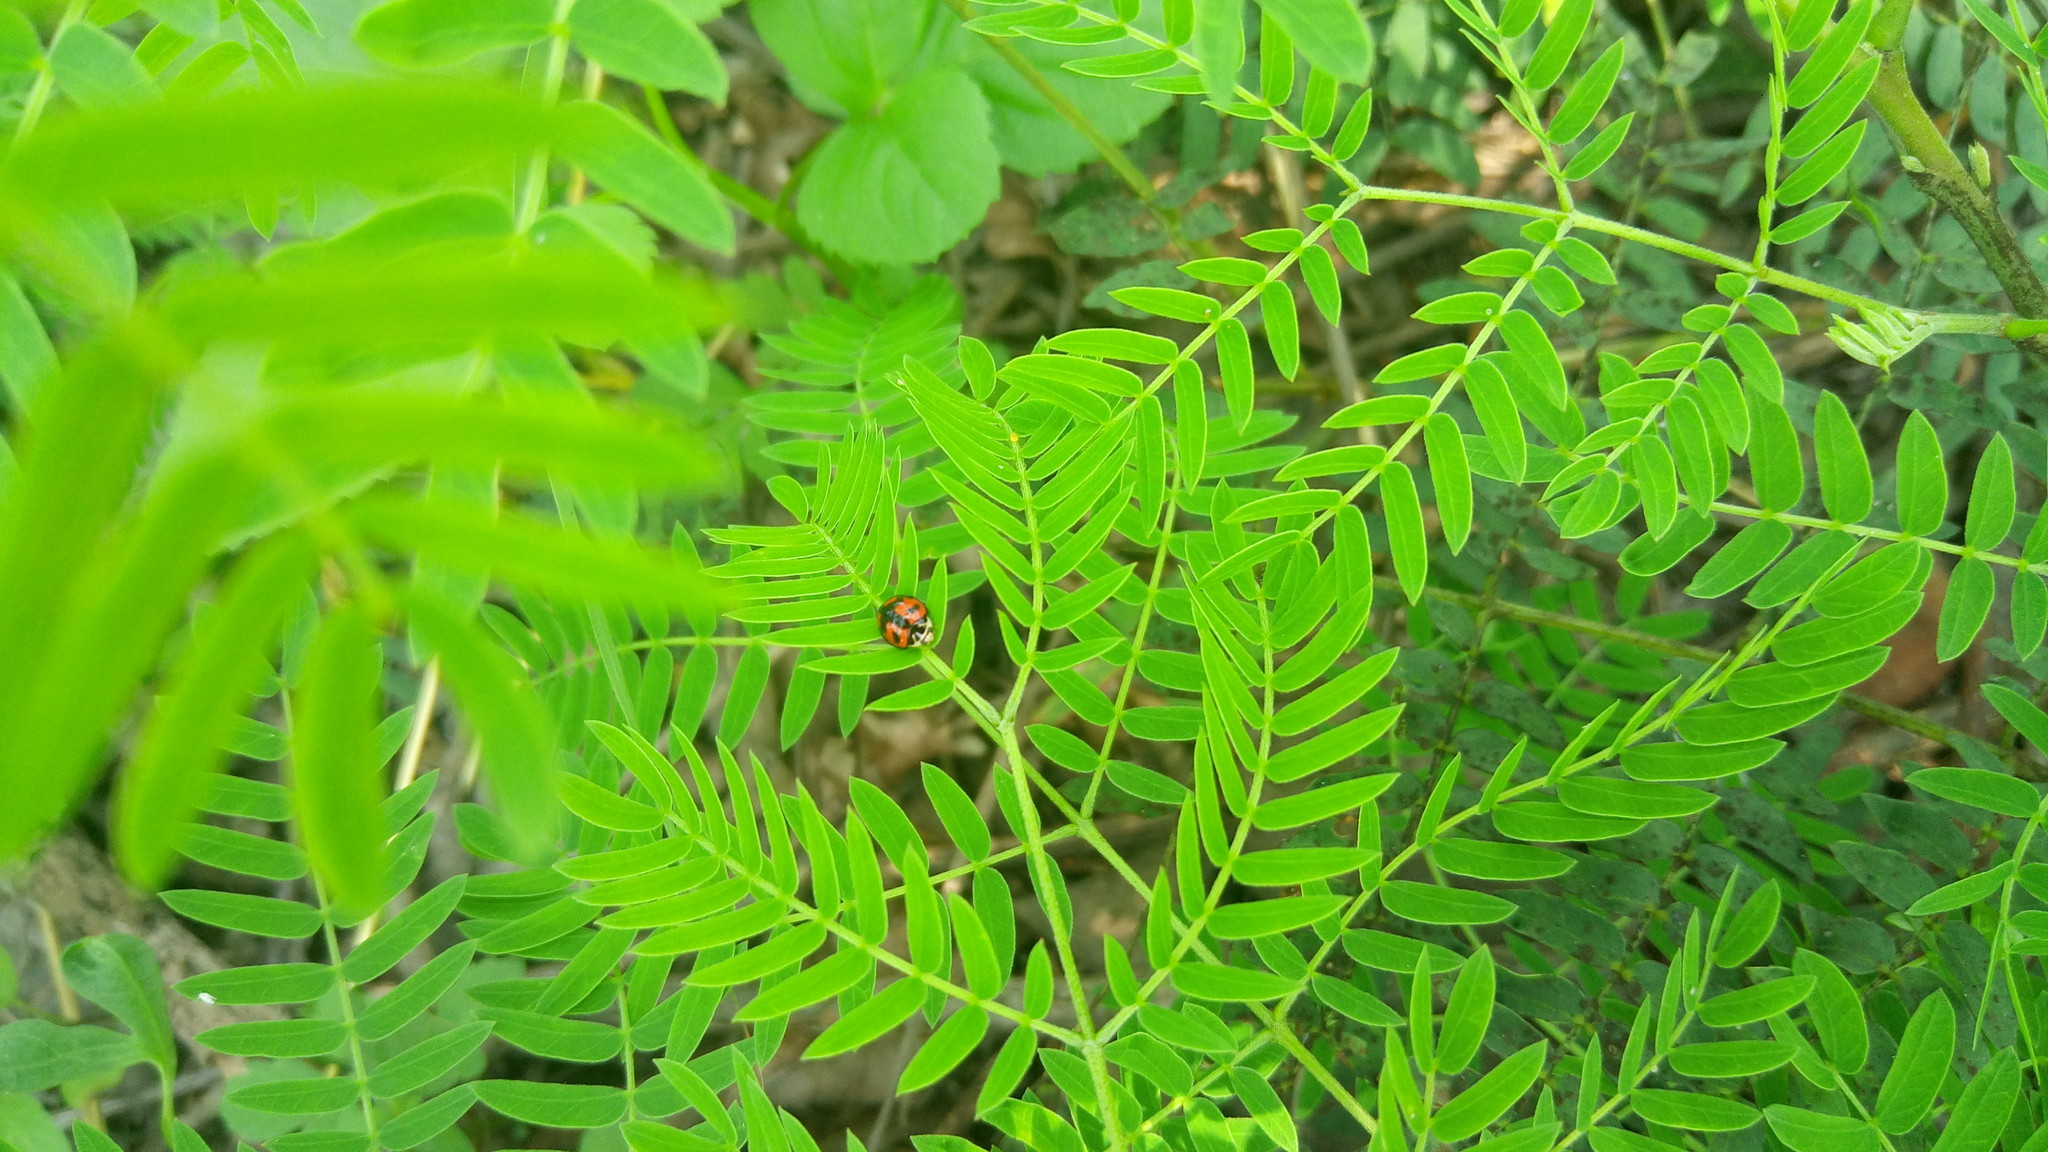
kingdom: Animalia
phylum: Arthropoda
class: Insecta
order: Coleoptera
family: Coccinellidae
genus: Cheilomenes
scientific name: Cheilomenes sexmaculata
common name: Ladybird beetle
